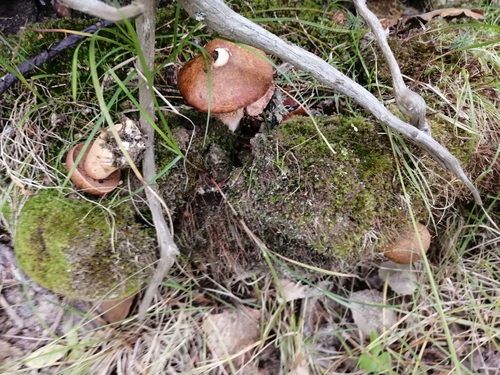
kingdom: Fungi
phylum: Basidiomycota
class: Agaricomycetes
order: Boletales
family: Suillaceae
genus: Suillus
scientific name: Suillus variegatus
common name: Velvet bolete
